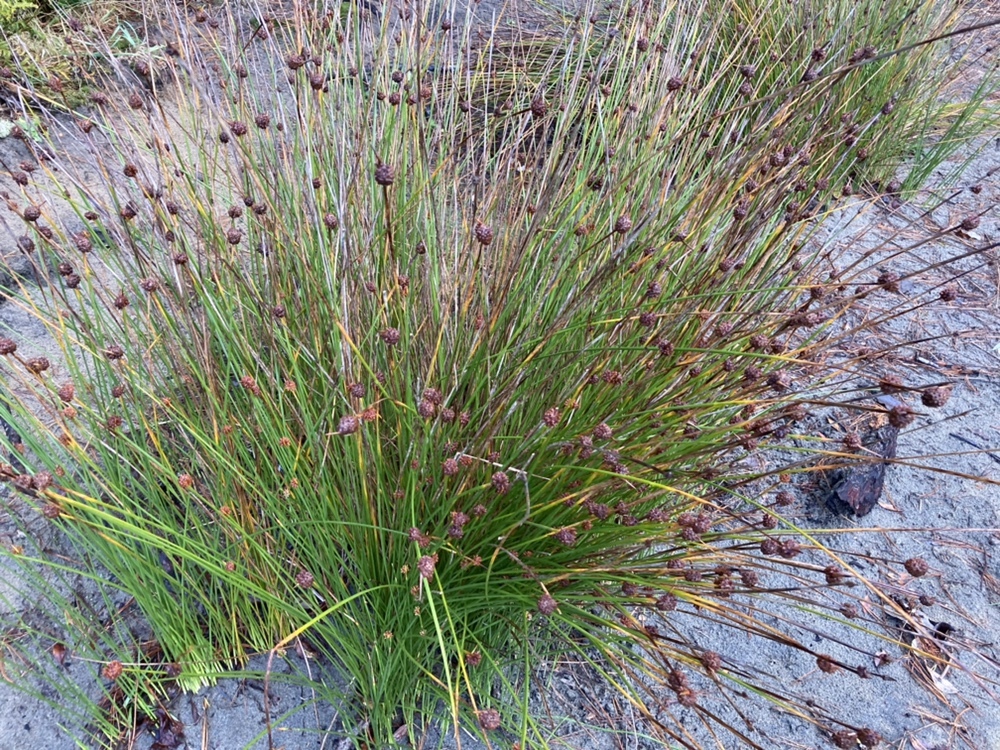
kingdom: Plantae
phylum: Tracheophyta
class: Liliopsida
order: Poales
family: Cyperaceae
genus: Ficinia
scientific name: Ficinia nodosa
